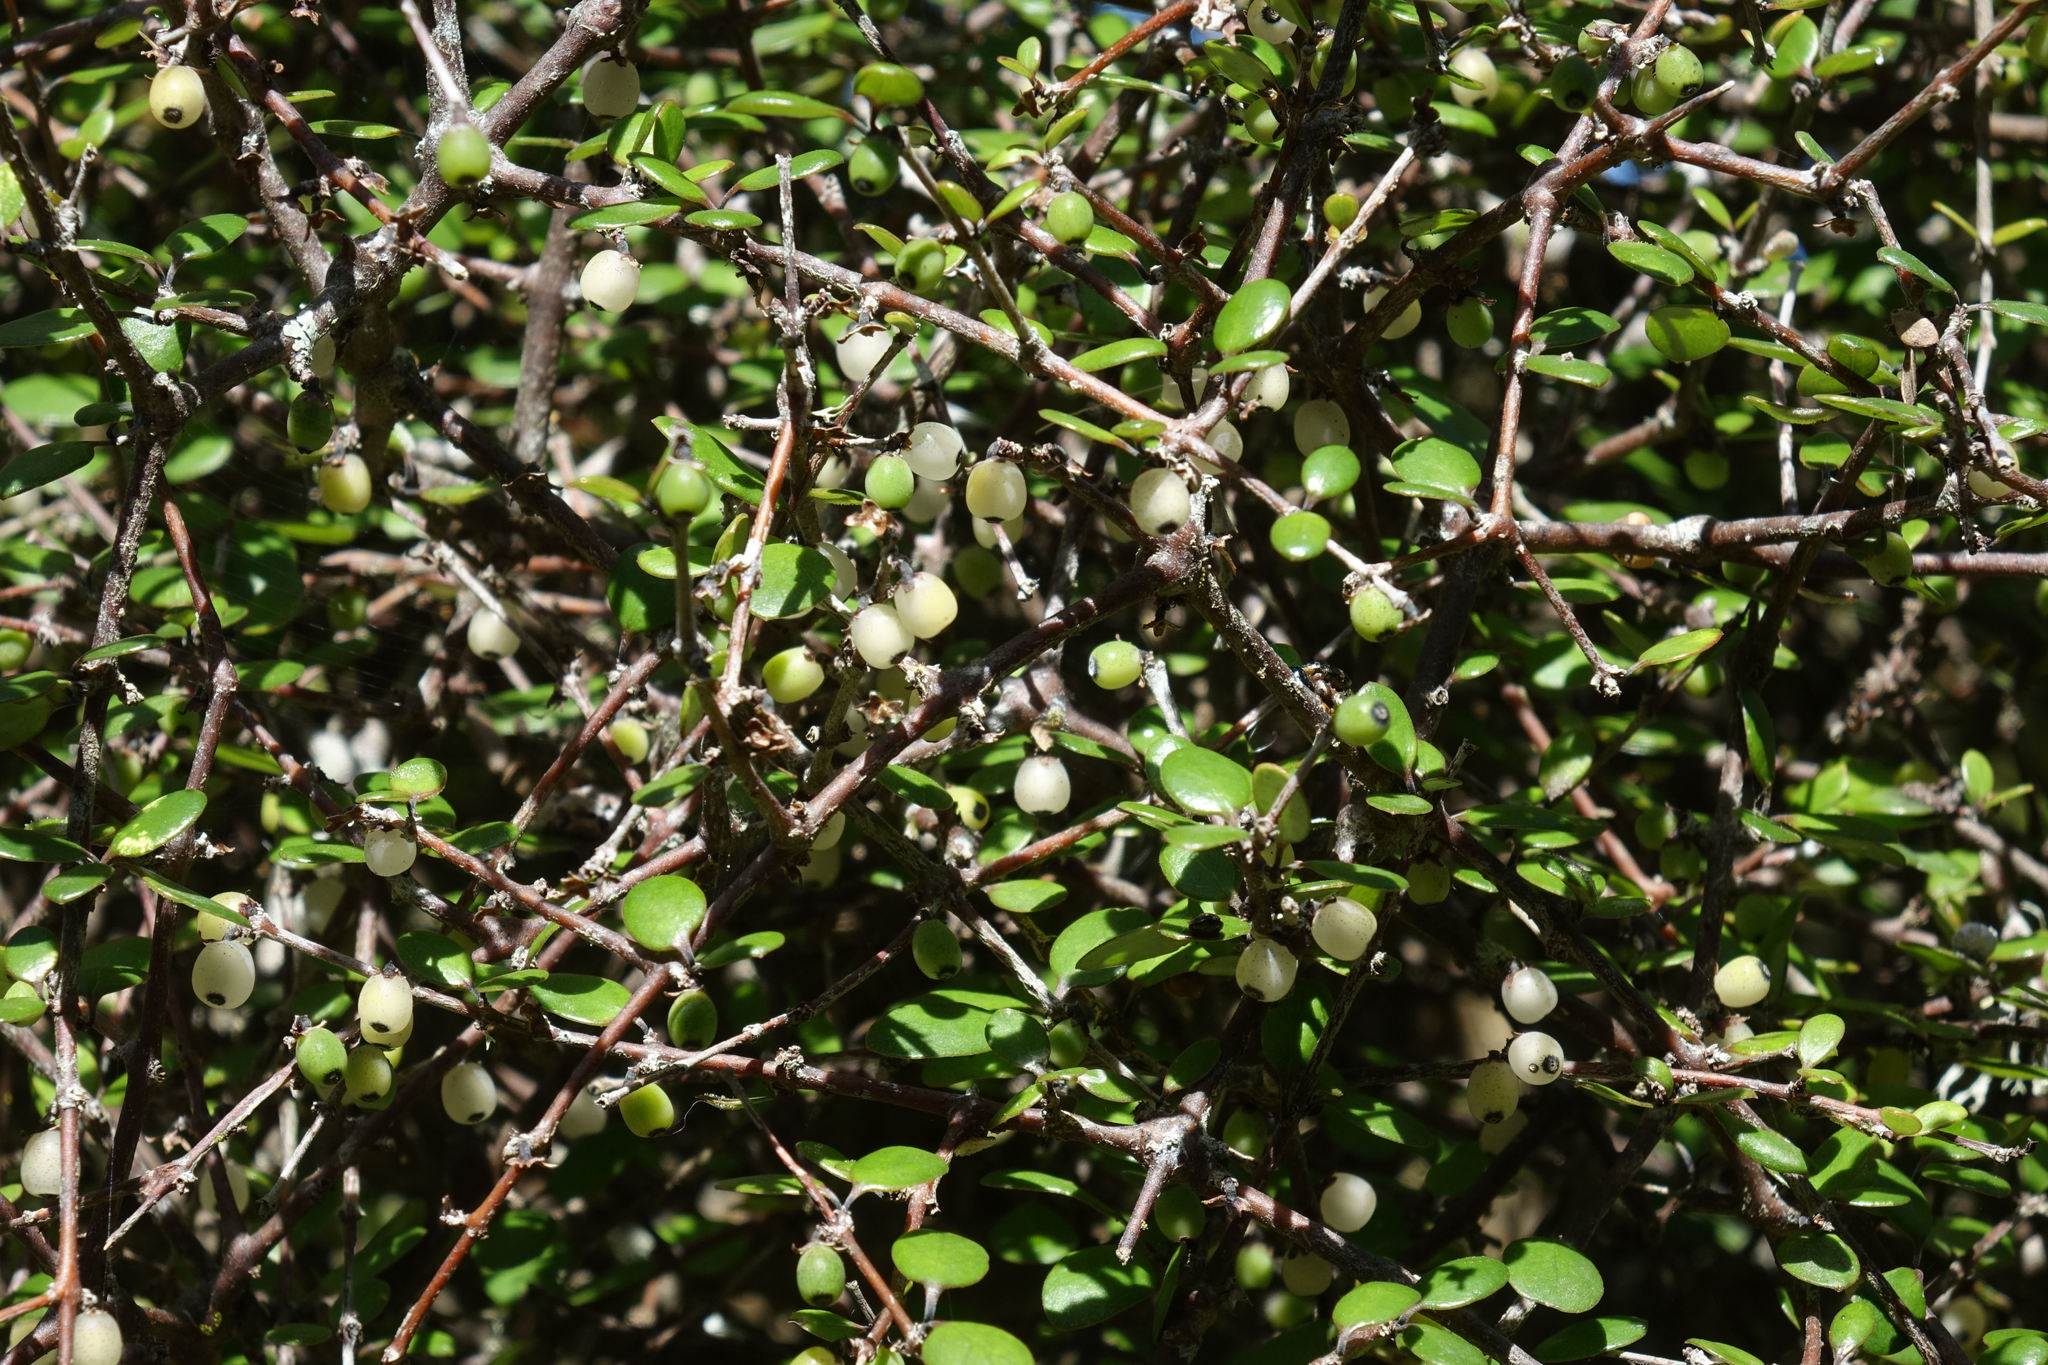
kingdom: Plantae
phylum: Tracheophyta
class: Magnoliopsida
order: Gentianales
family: Rubiaceae
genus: Coprosma
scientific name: Coprosma crassifolia
